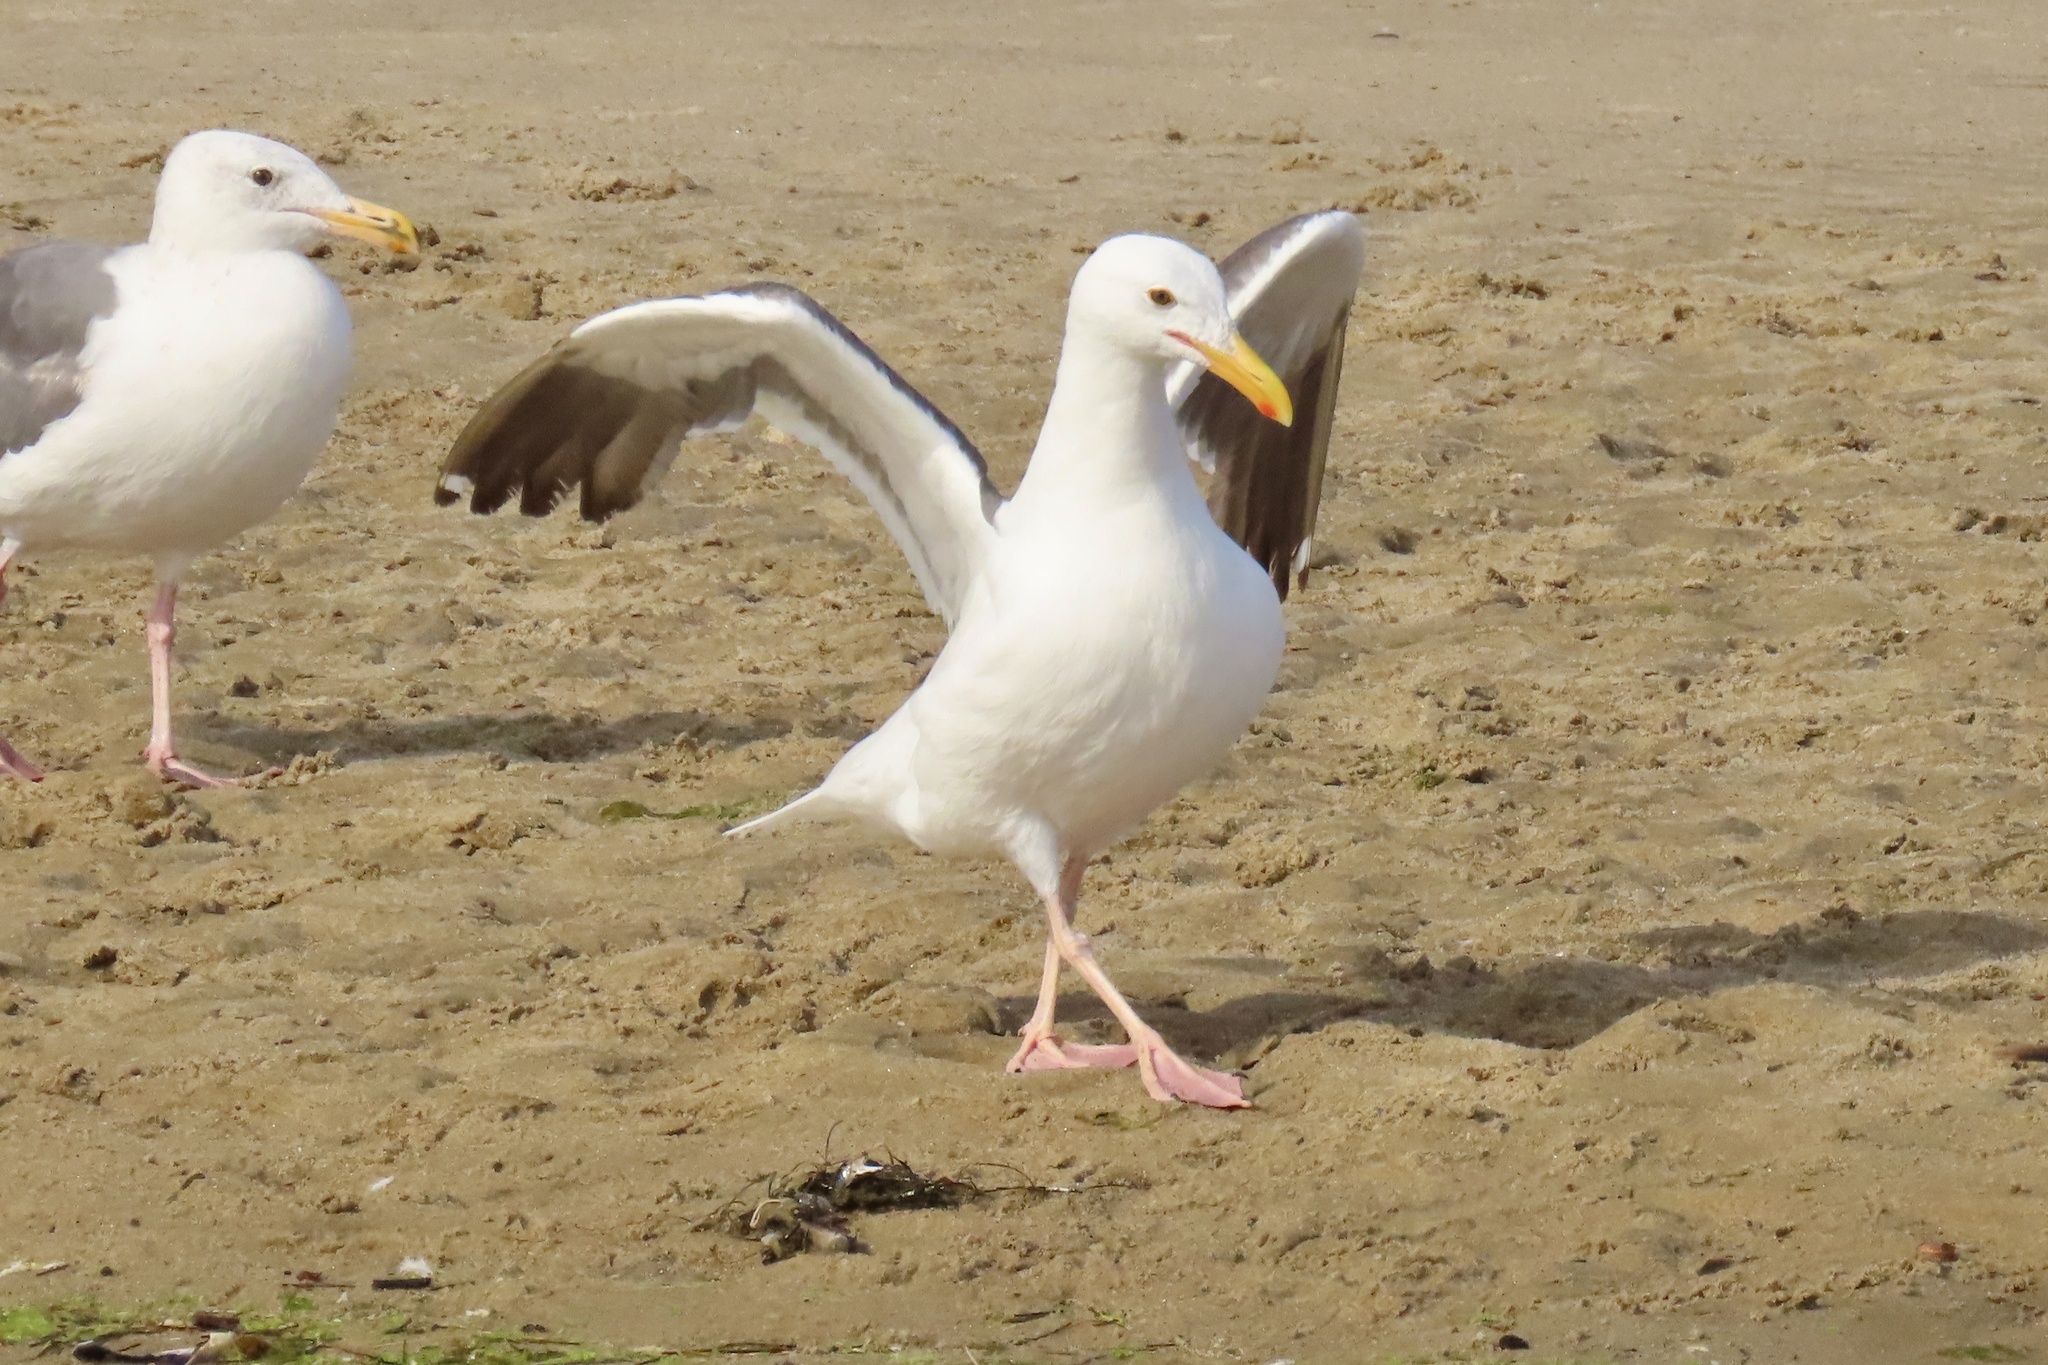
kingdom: Animalia
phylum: Chordata
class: Aves
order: Charadriiformes
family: Laridae
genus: Larus
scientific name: Larus occidentalis
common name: Western gull
